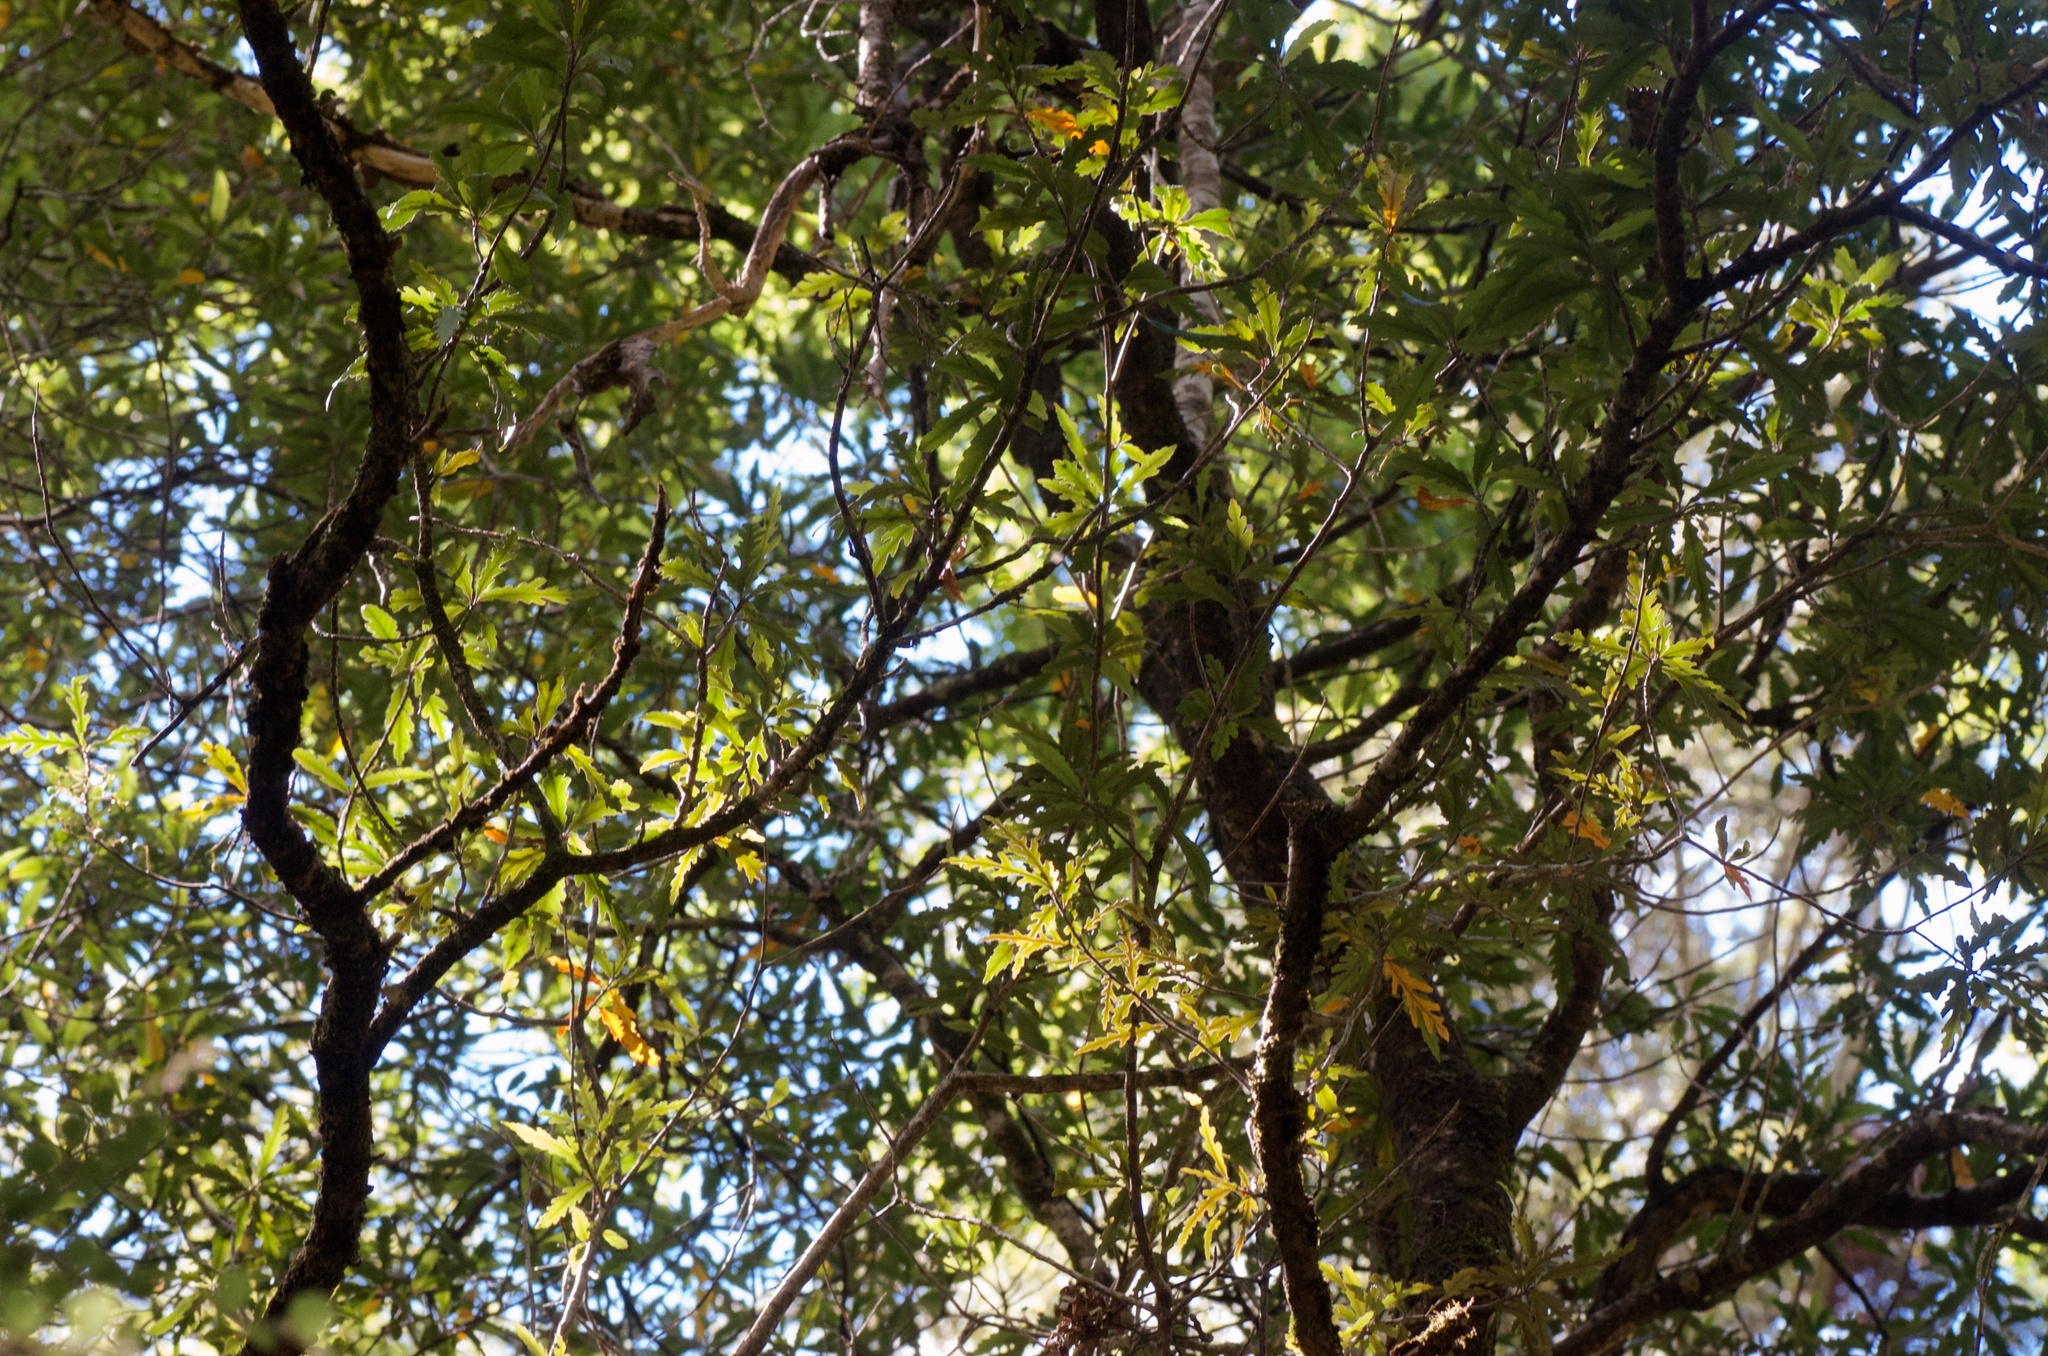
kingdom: Plantae
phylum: Tracheophyta
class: Magnoliopsida
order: Oxalidales
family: Elaeocarpaceae
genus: Elaeocarpus
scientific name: Elaeocarpus hookerianus
